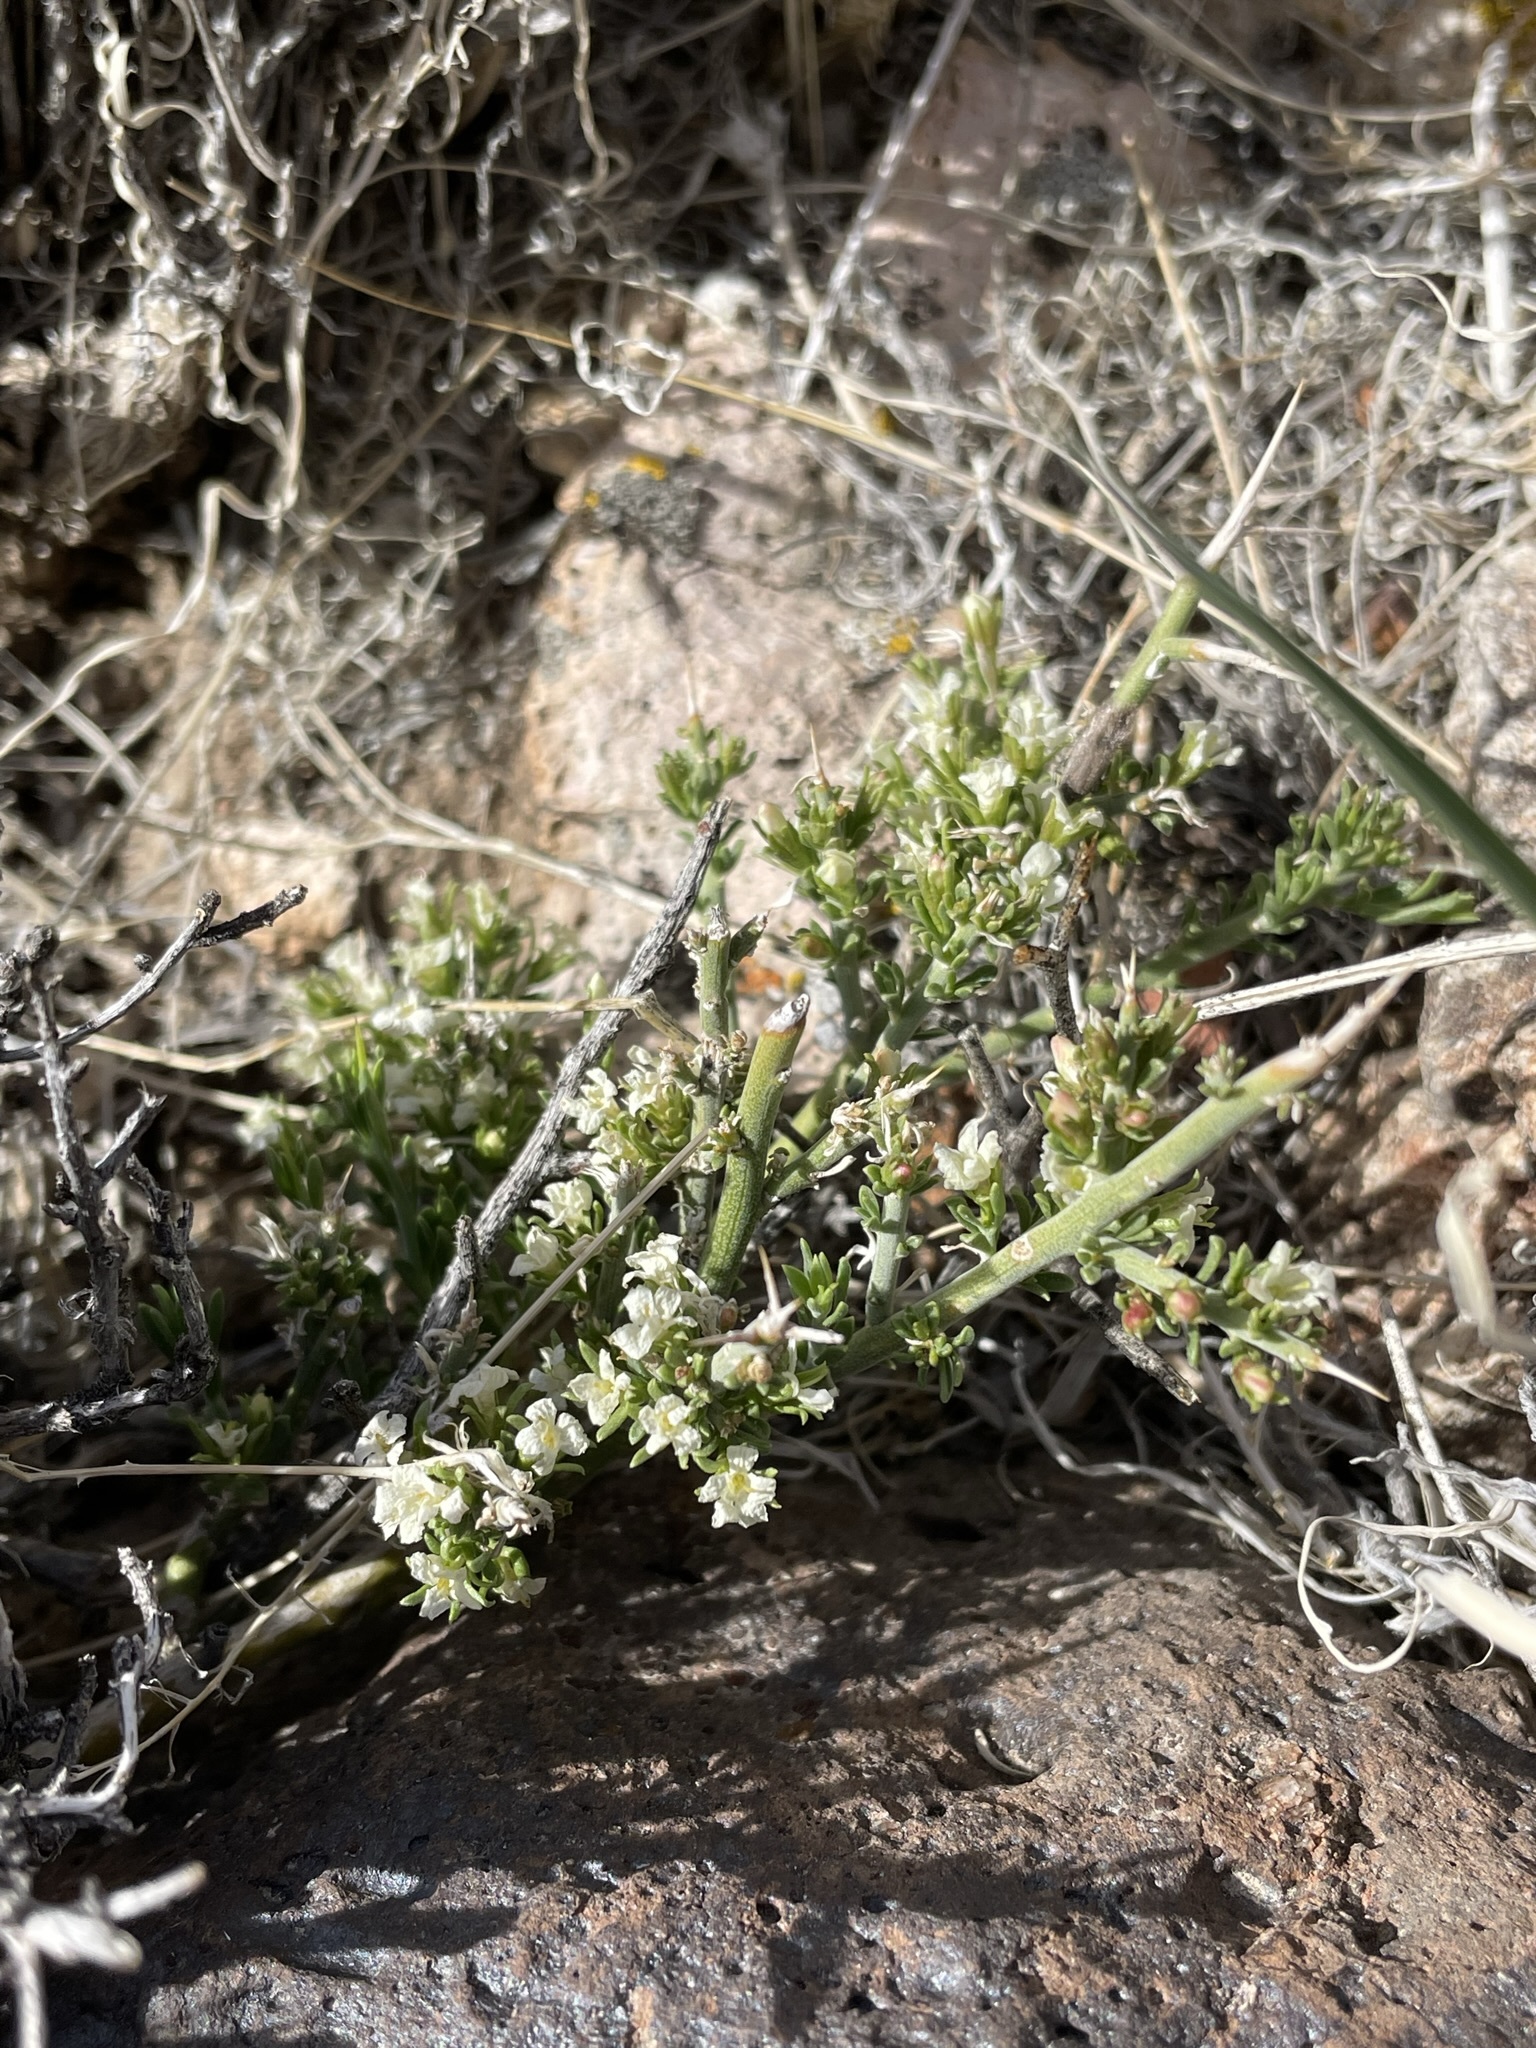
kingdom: Plantae
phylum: Tracheophyta
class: Magnoliopsida
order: Lamiales
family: Oleaceae
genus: Menodora
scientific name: Menodora spinescens
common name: Spiny menodora
